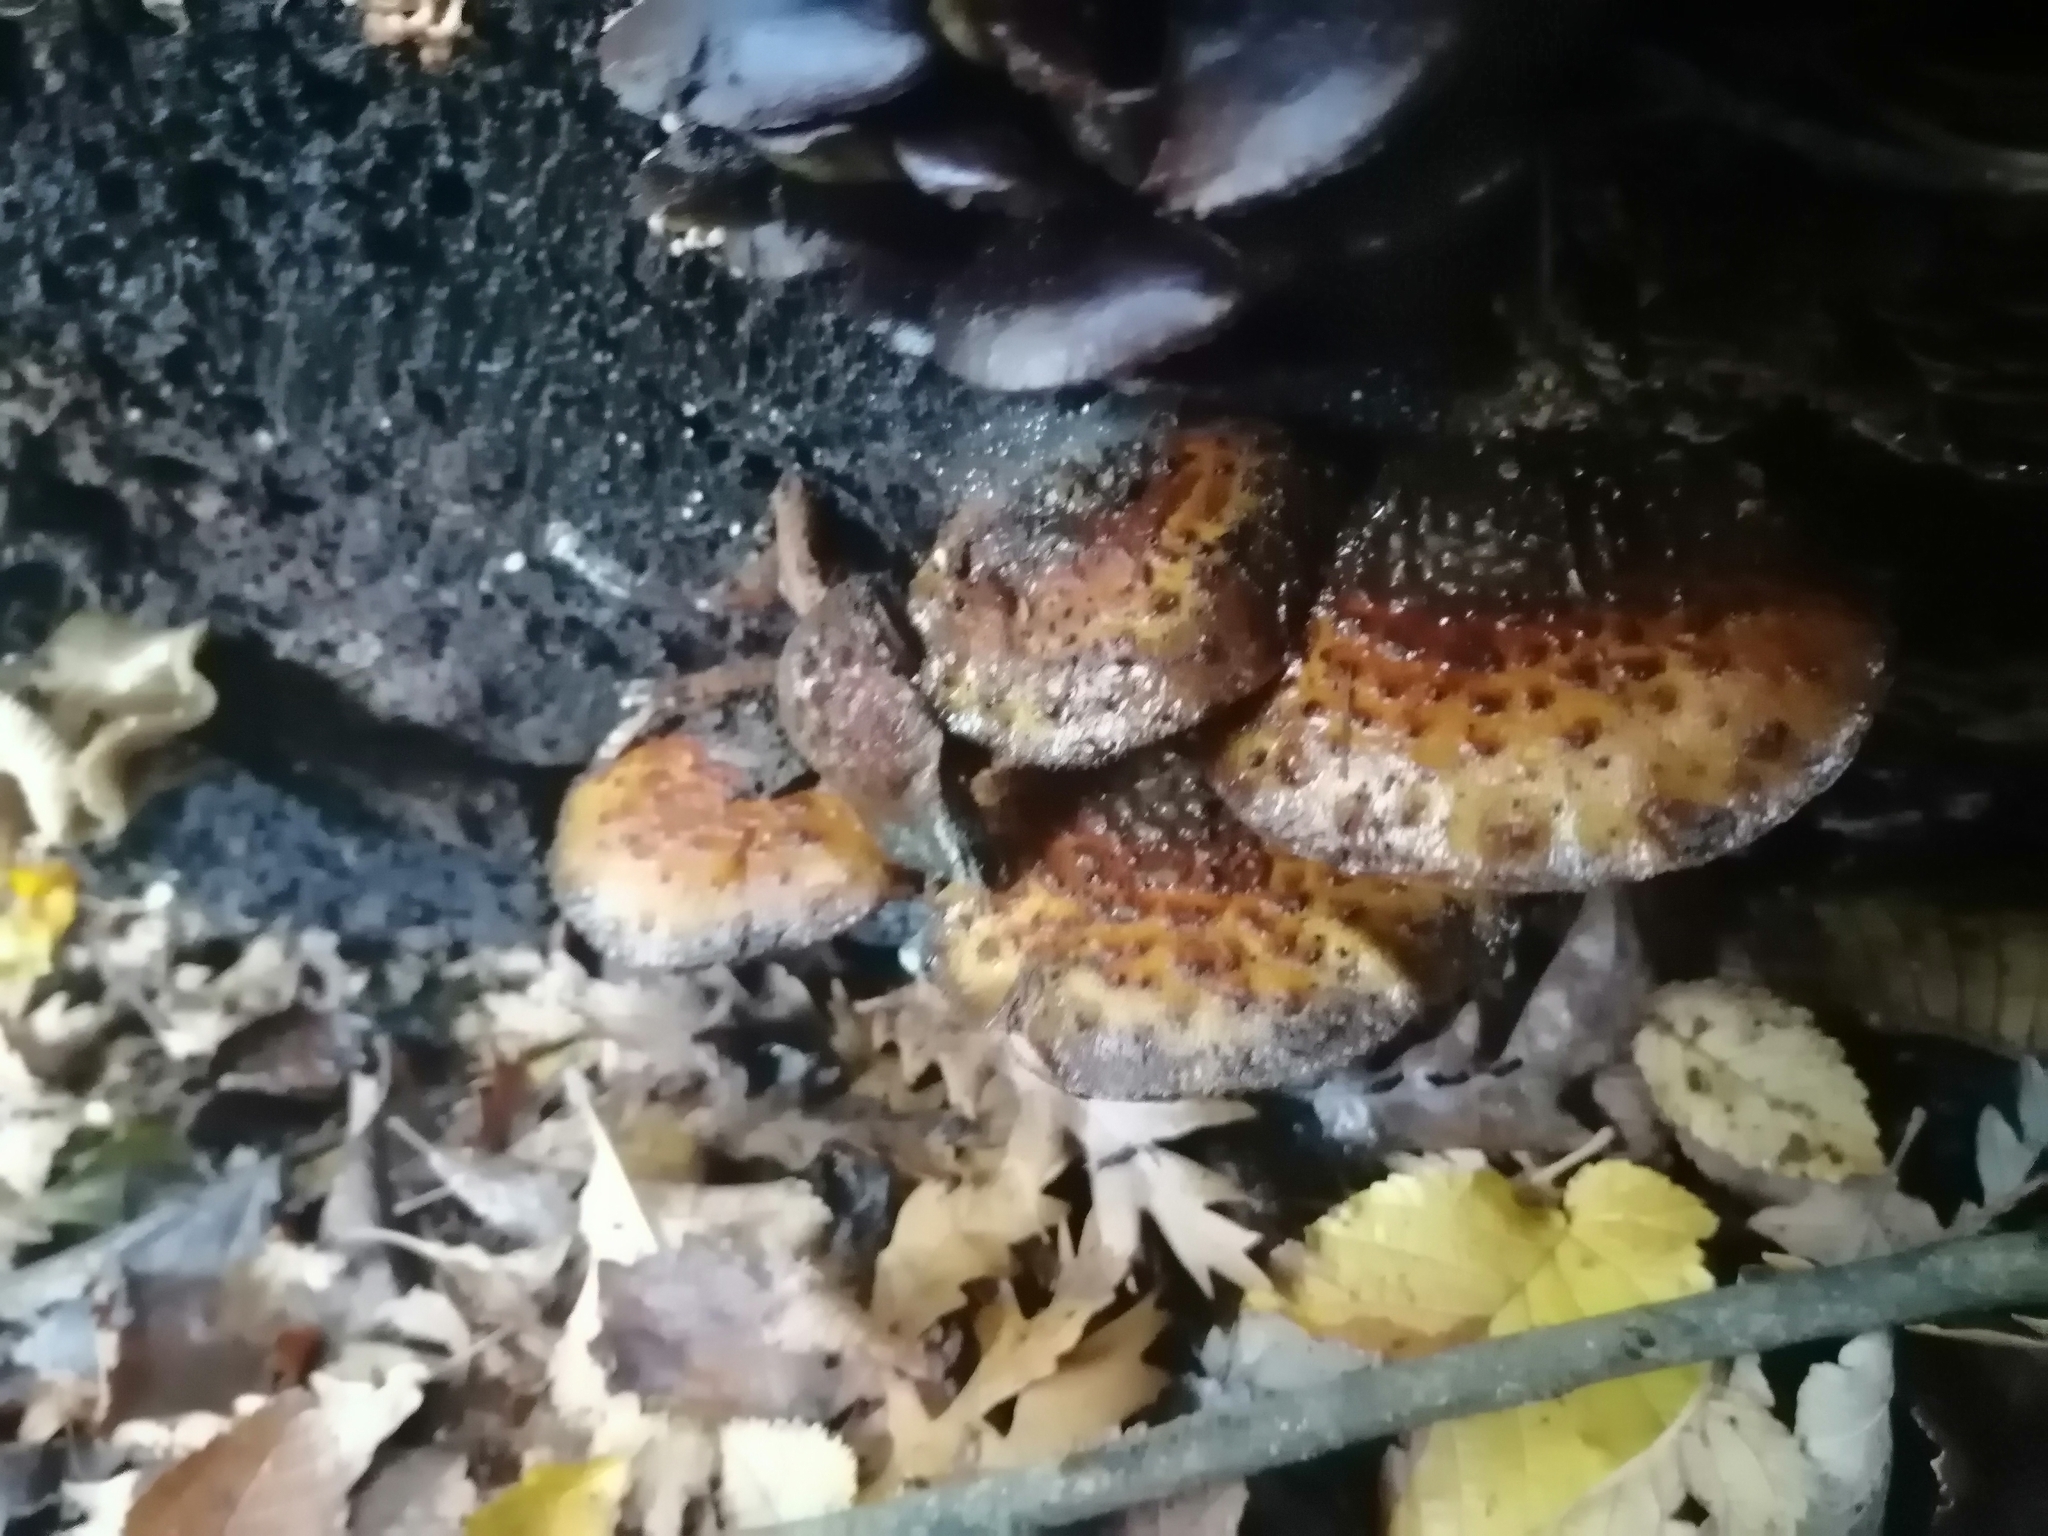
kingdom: Fungi
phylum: Basidiomycota
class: Agaricomycetes
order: Agaricales
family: Strophariaceae
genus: Pholiota
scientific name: Pholiota glutinosa
